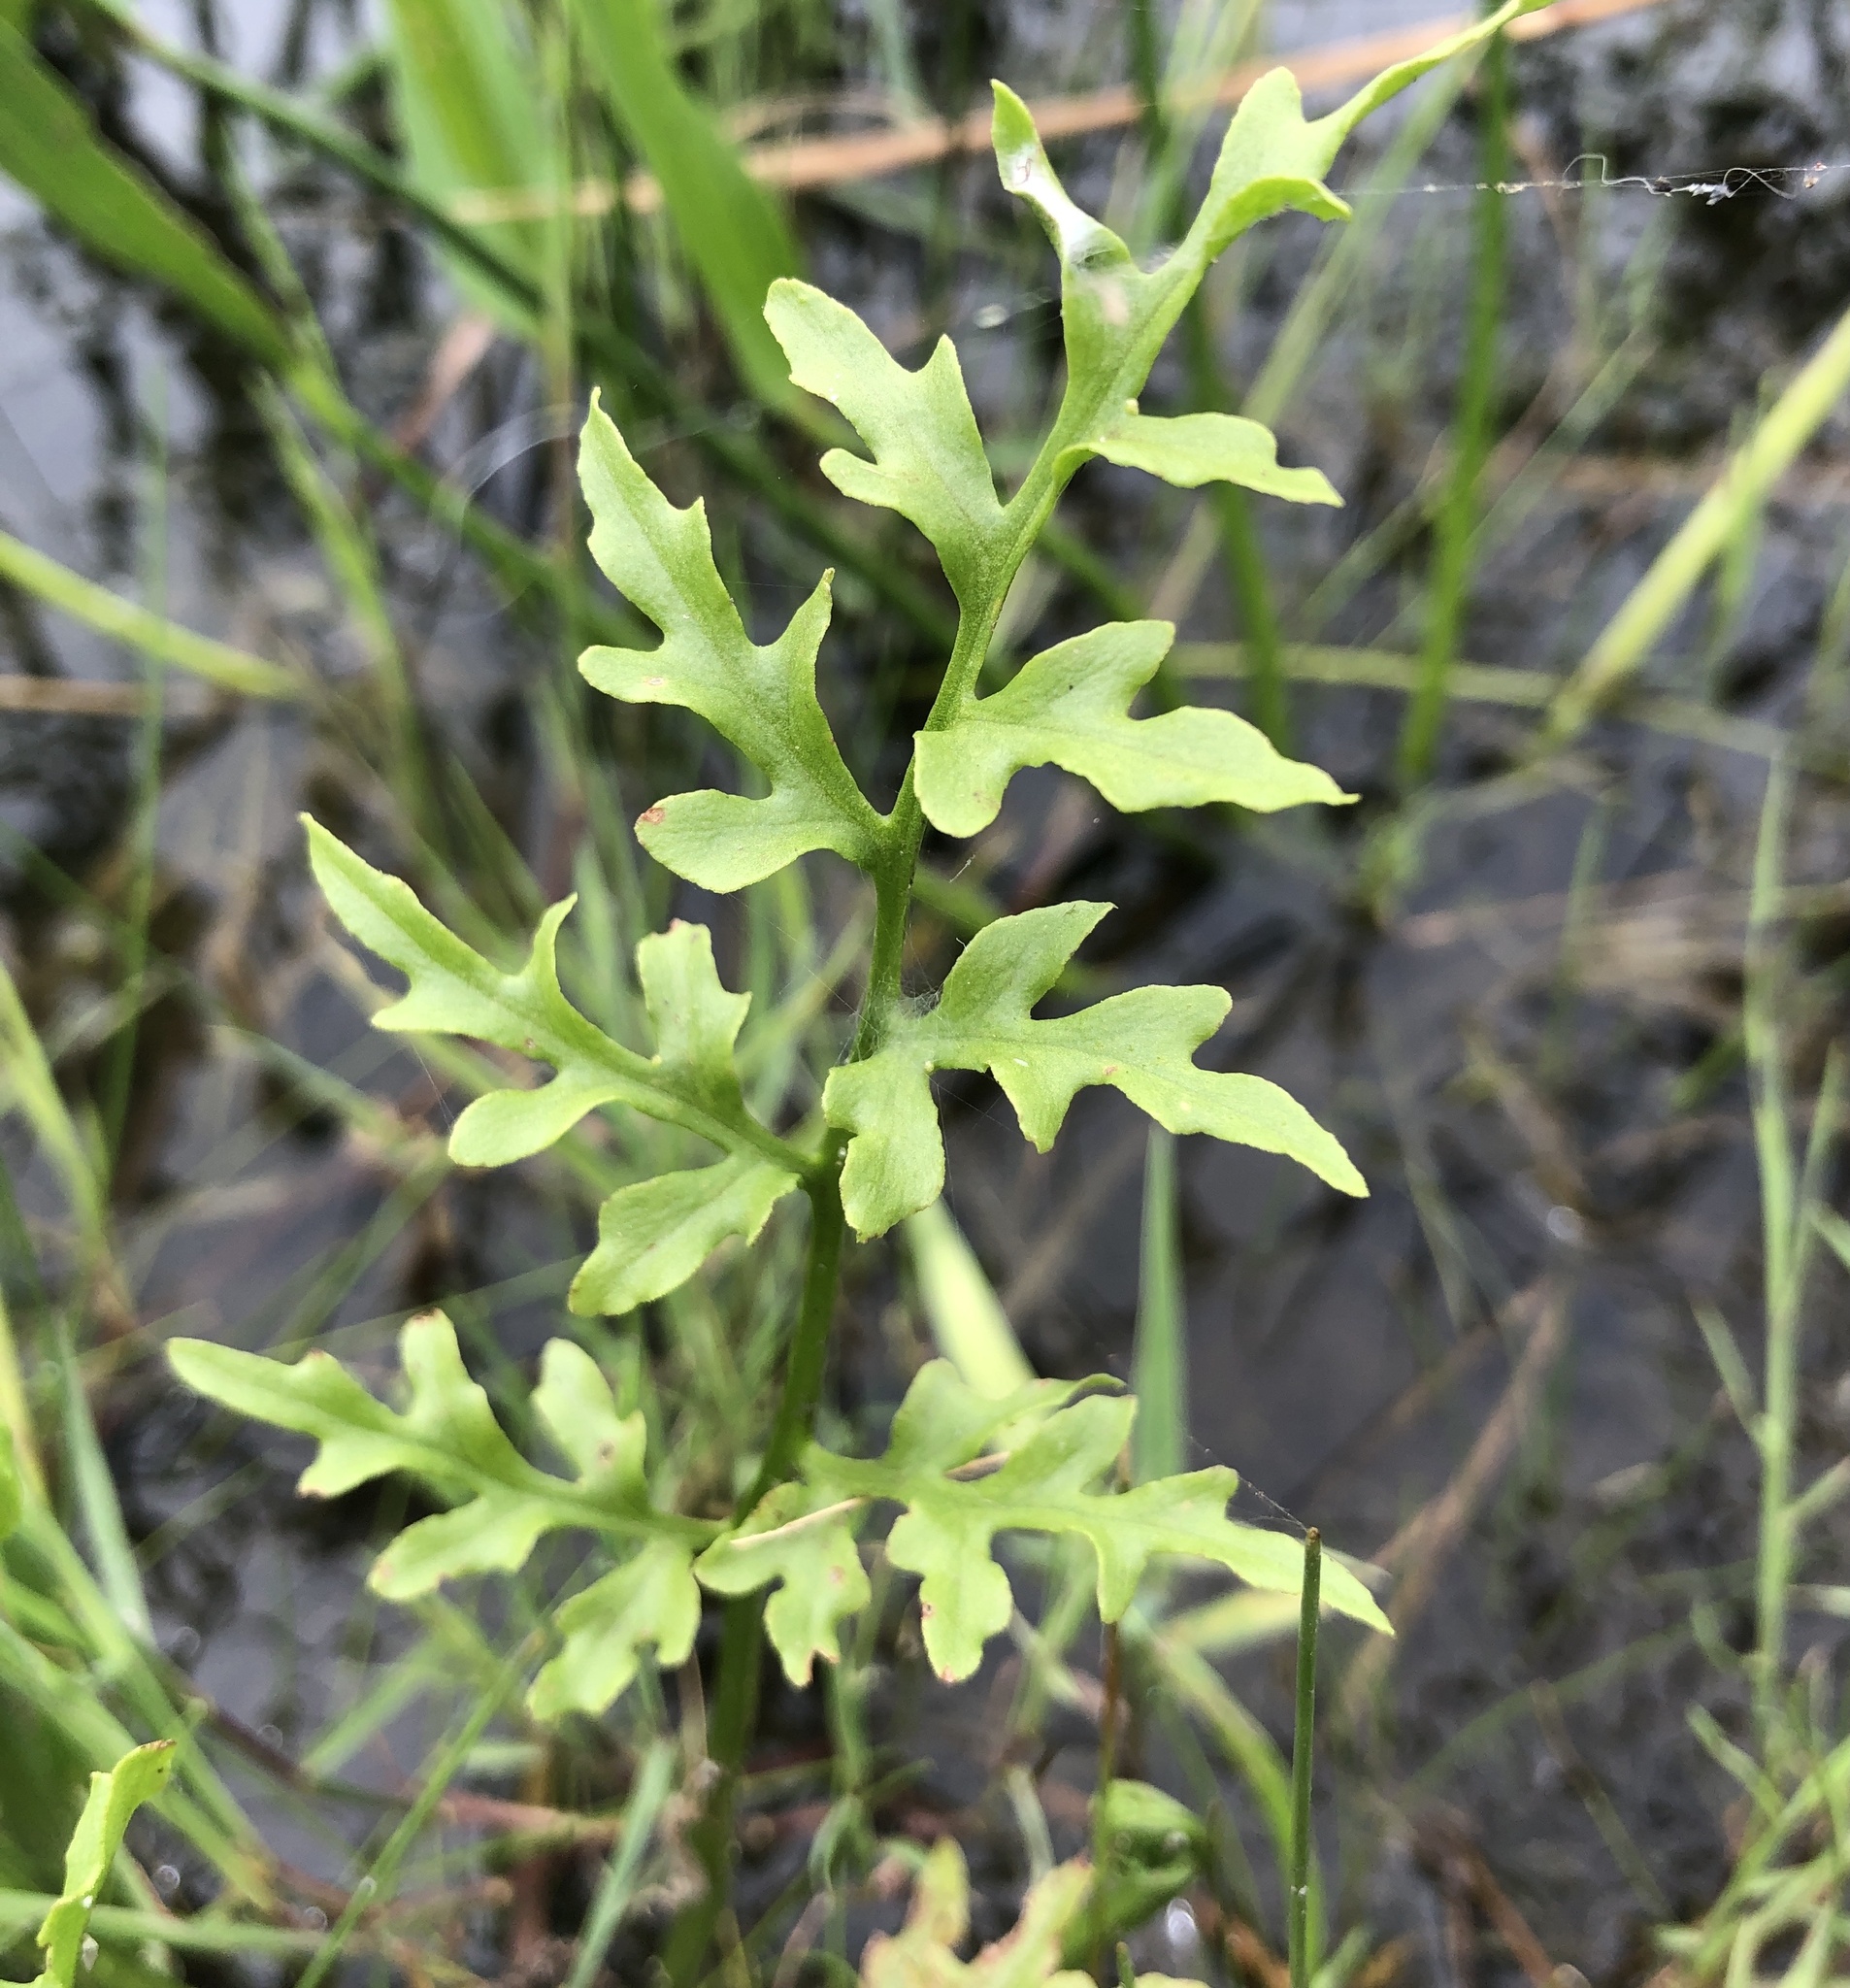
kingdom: Plantae
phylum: Tracheophyta
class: Polypodiopsida
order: Polypodiales
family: Pteridaceae
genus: Ceratopteris
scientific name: Ceratopteris thalictroides
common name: Water fern
